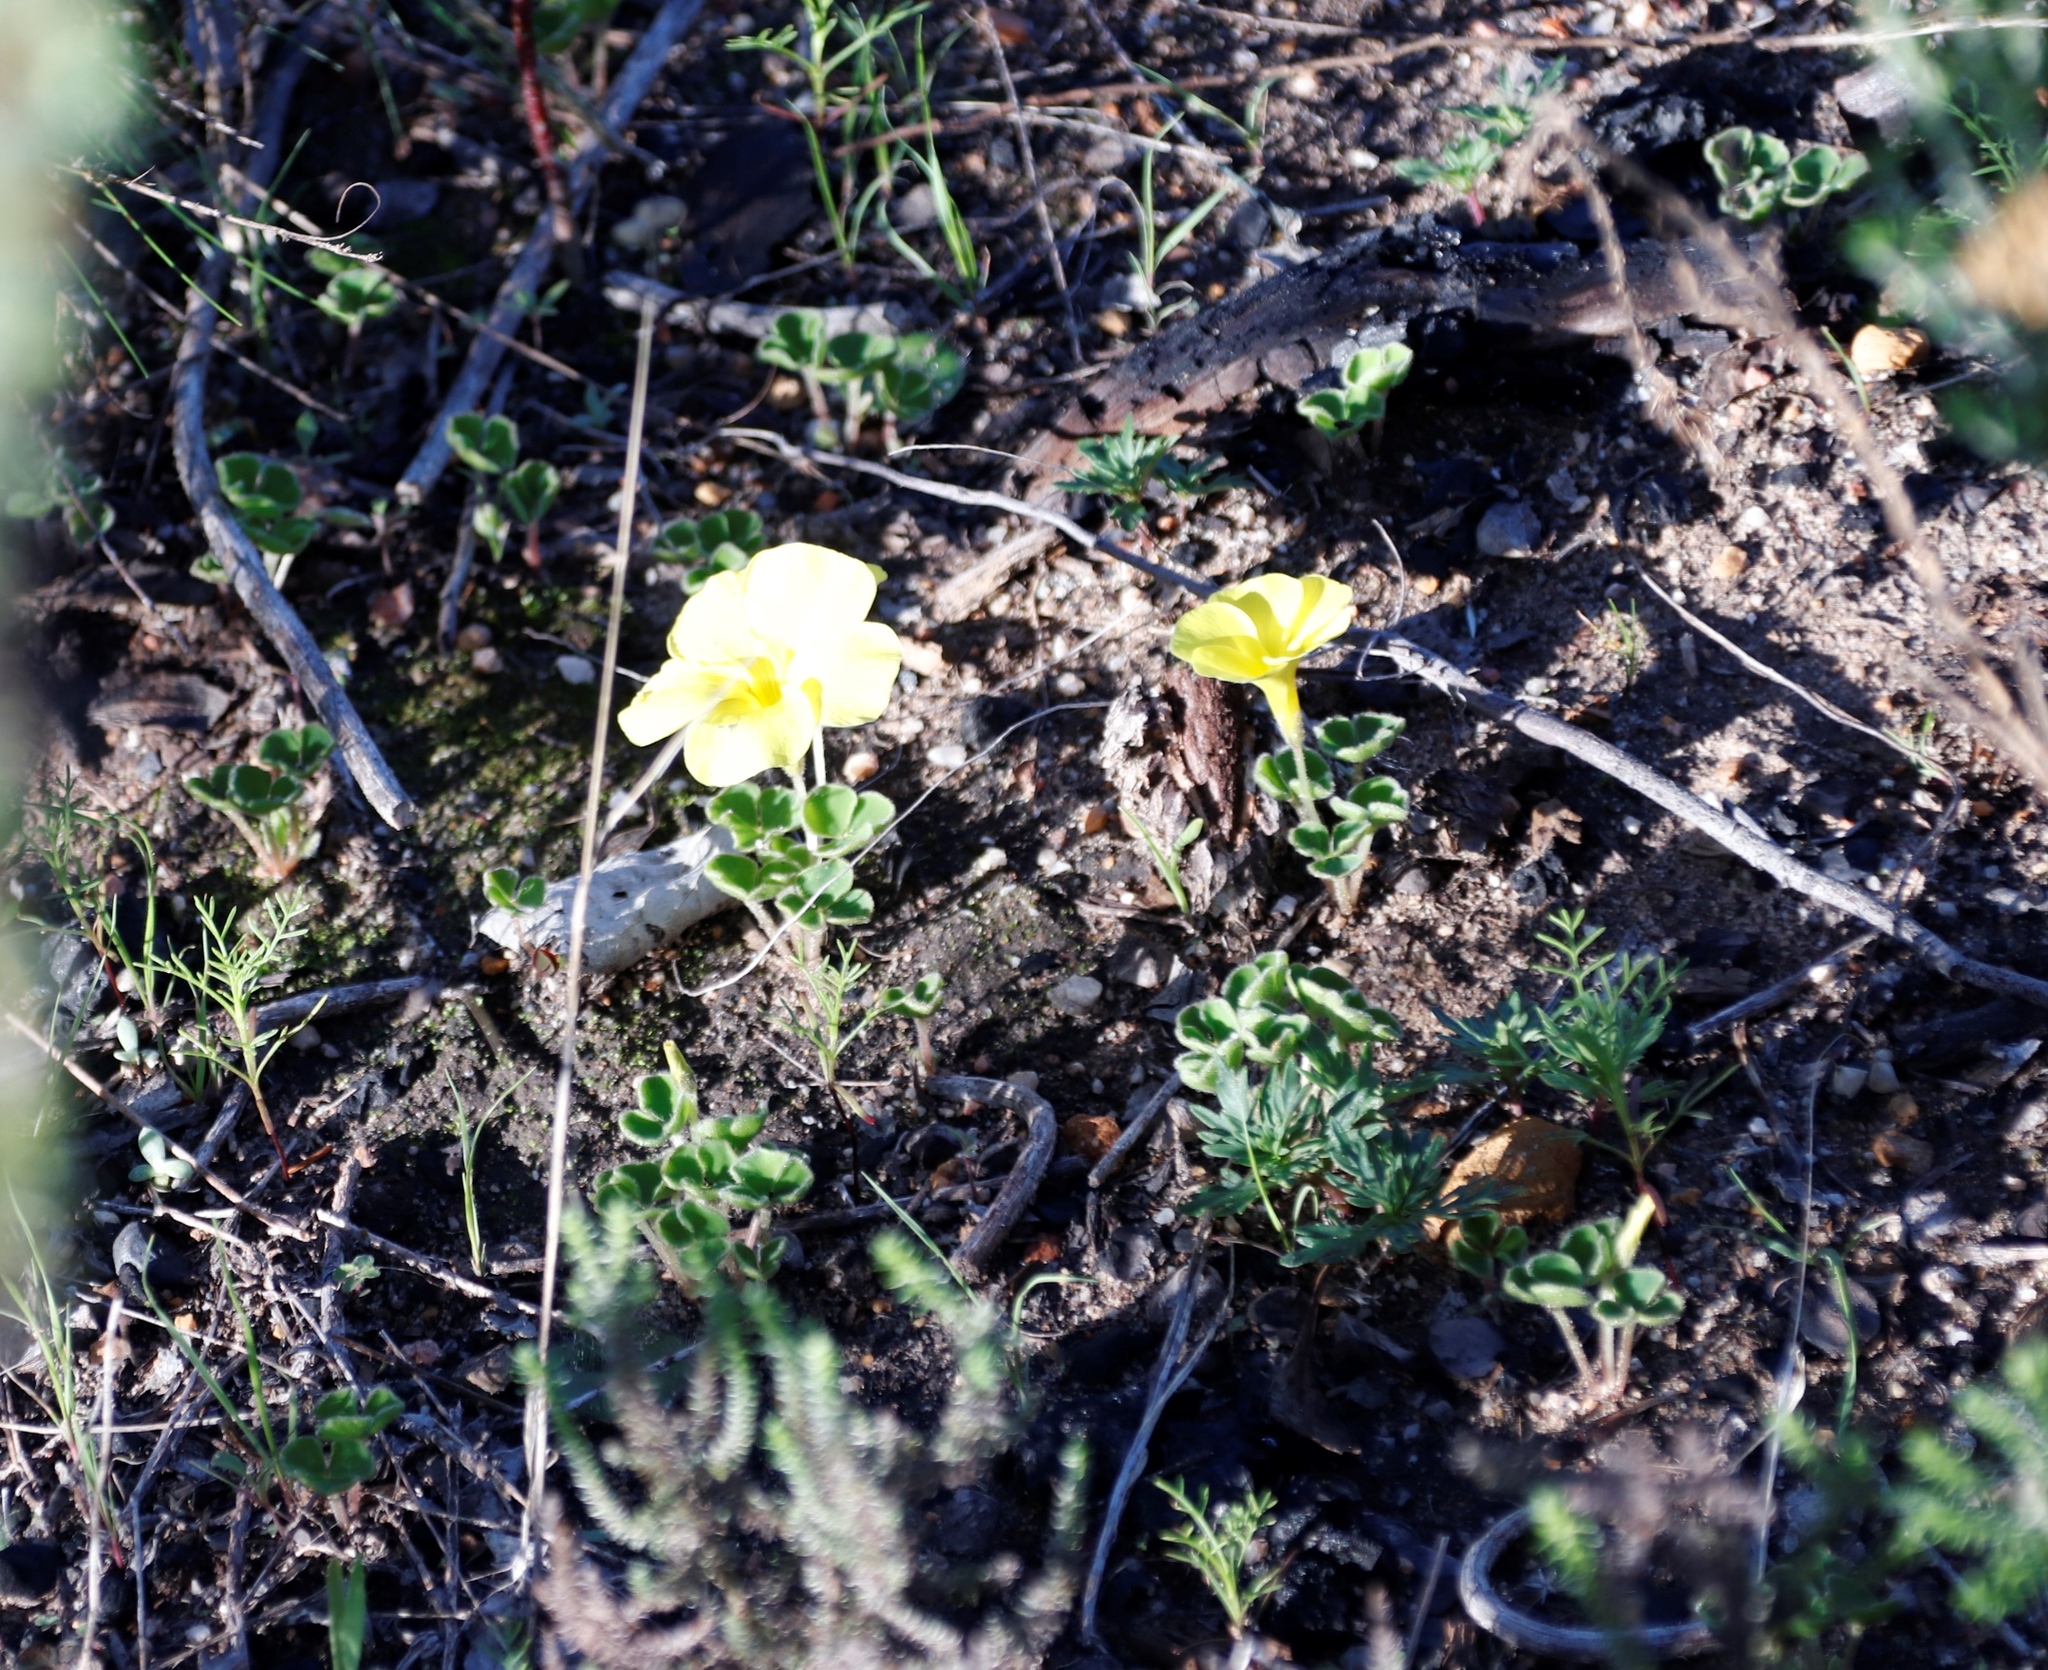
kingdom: Plantae
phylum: Tracheophyta
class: Magnoliopsida
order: Oxalidales
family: Oxalidaceae
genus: Oxalis
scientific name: Oxalis luteola
